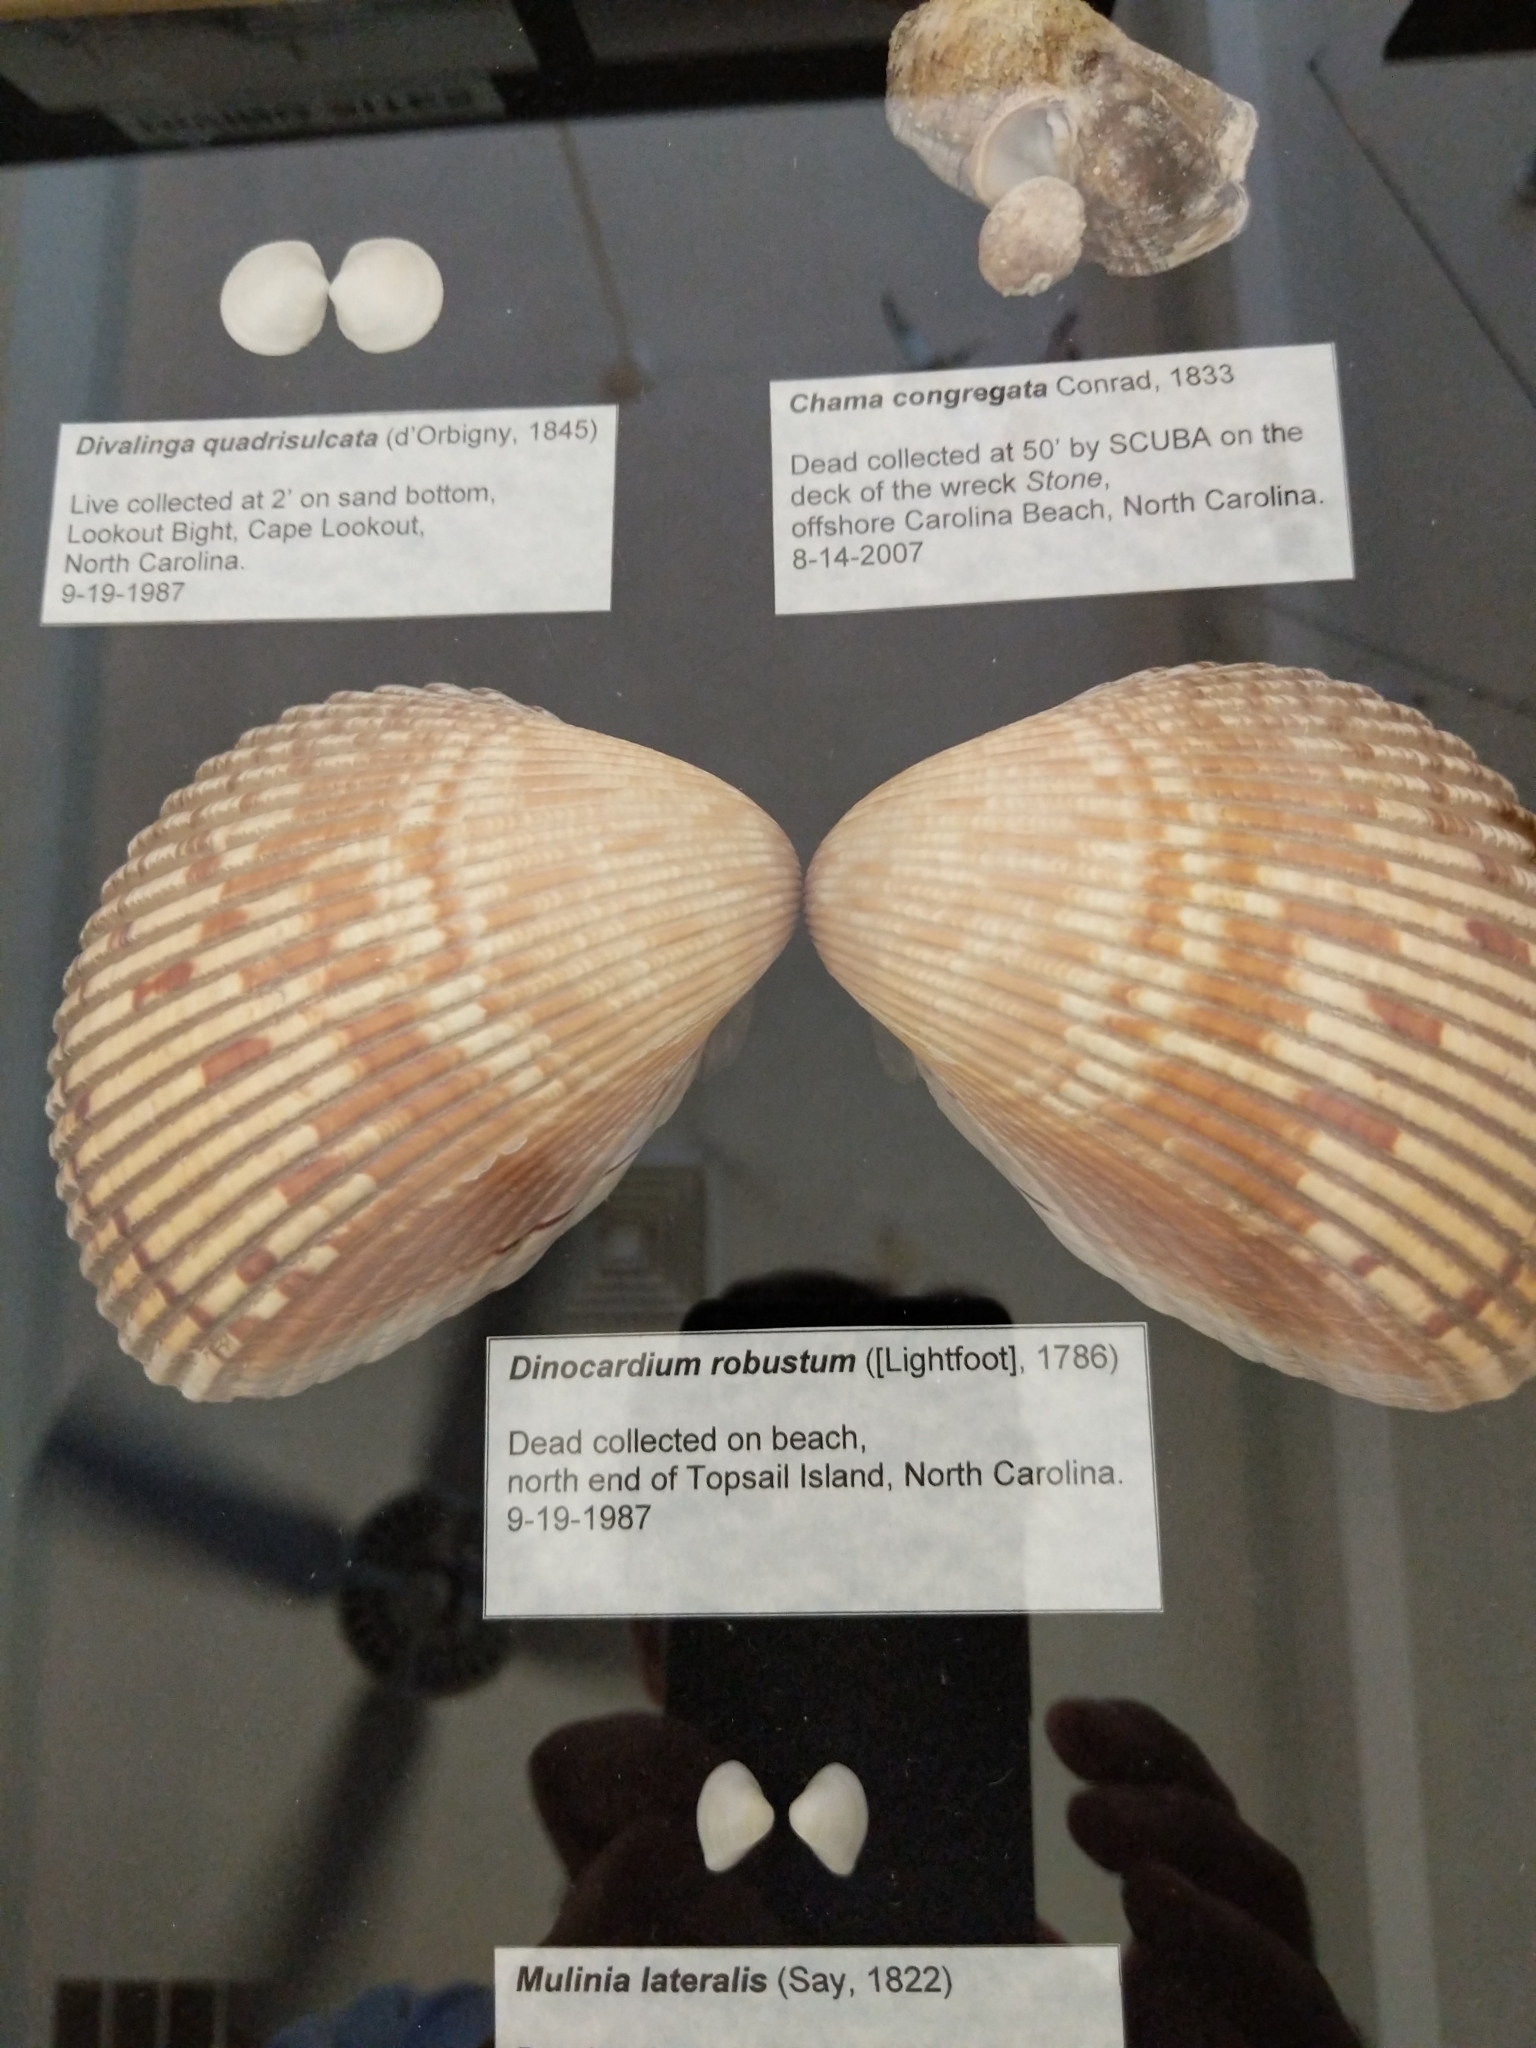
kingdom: Animalia
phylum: Mollusca
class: Bivalvia
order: Cardiida
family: Cardiidae
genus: Dinocardium
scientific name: Dinocardium robustum
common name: Atlantic giant cockle
